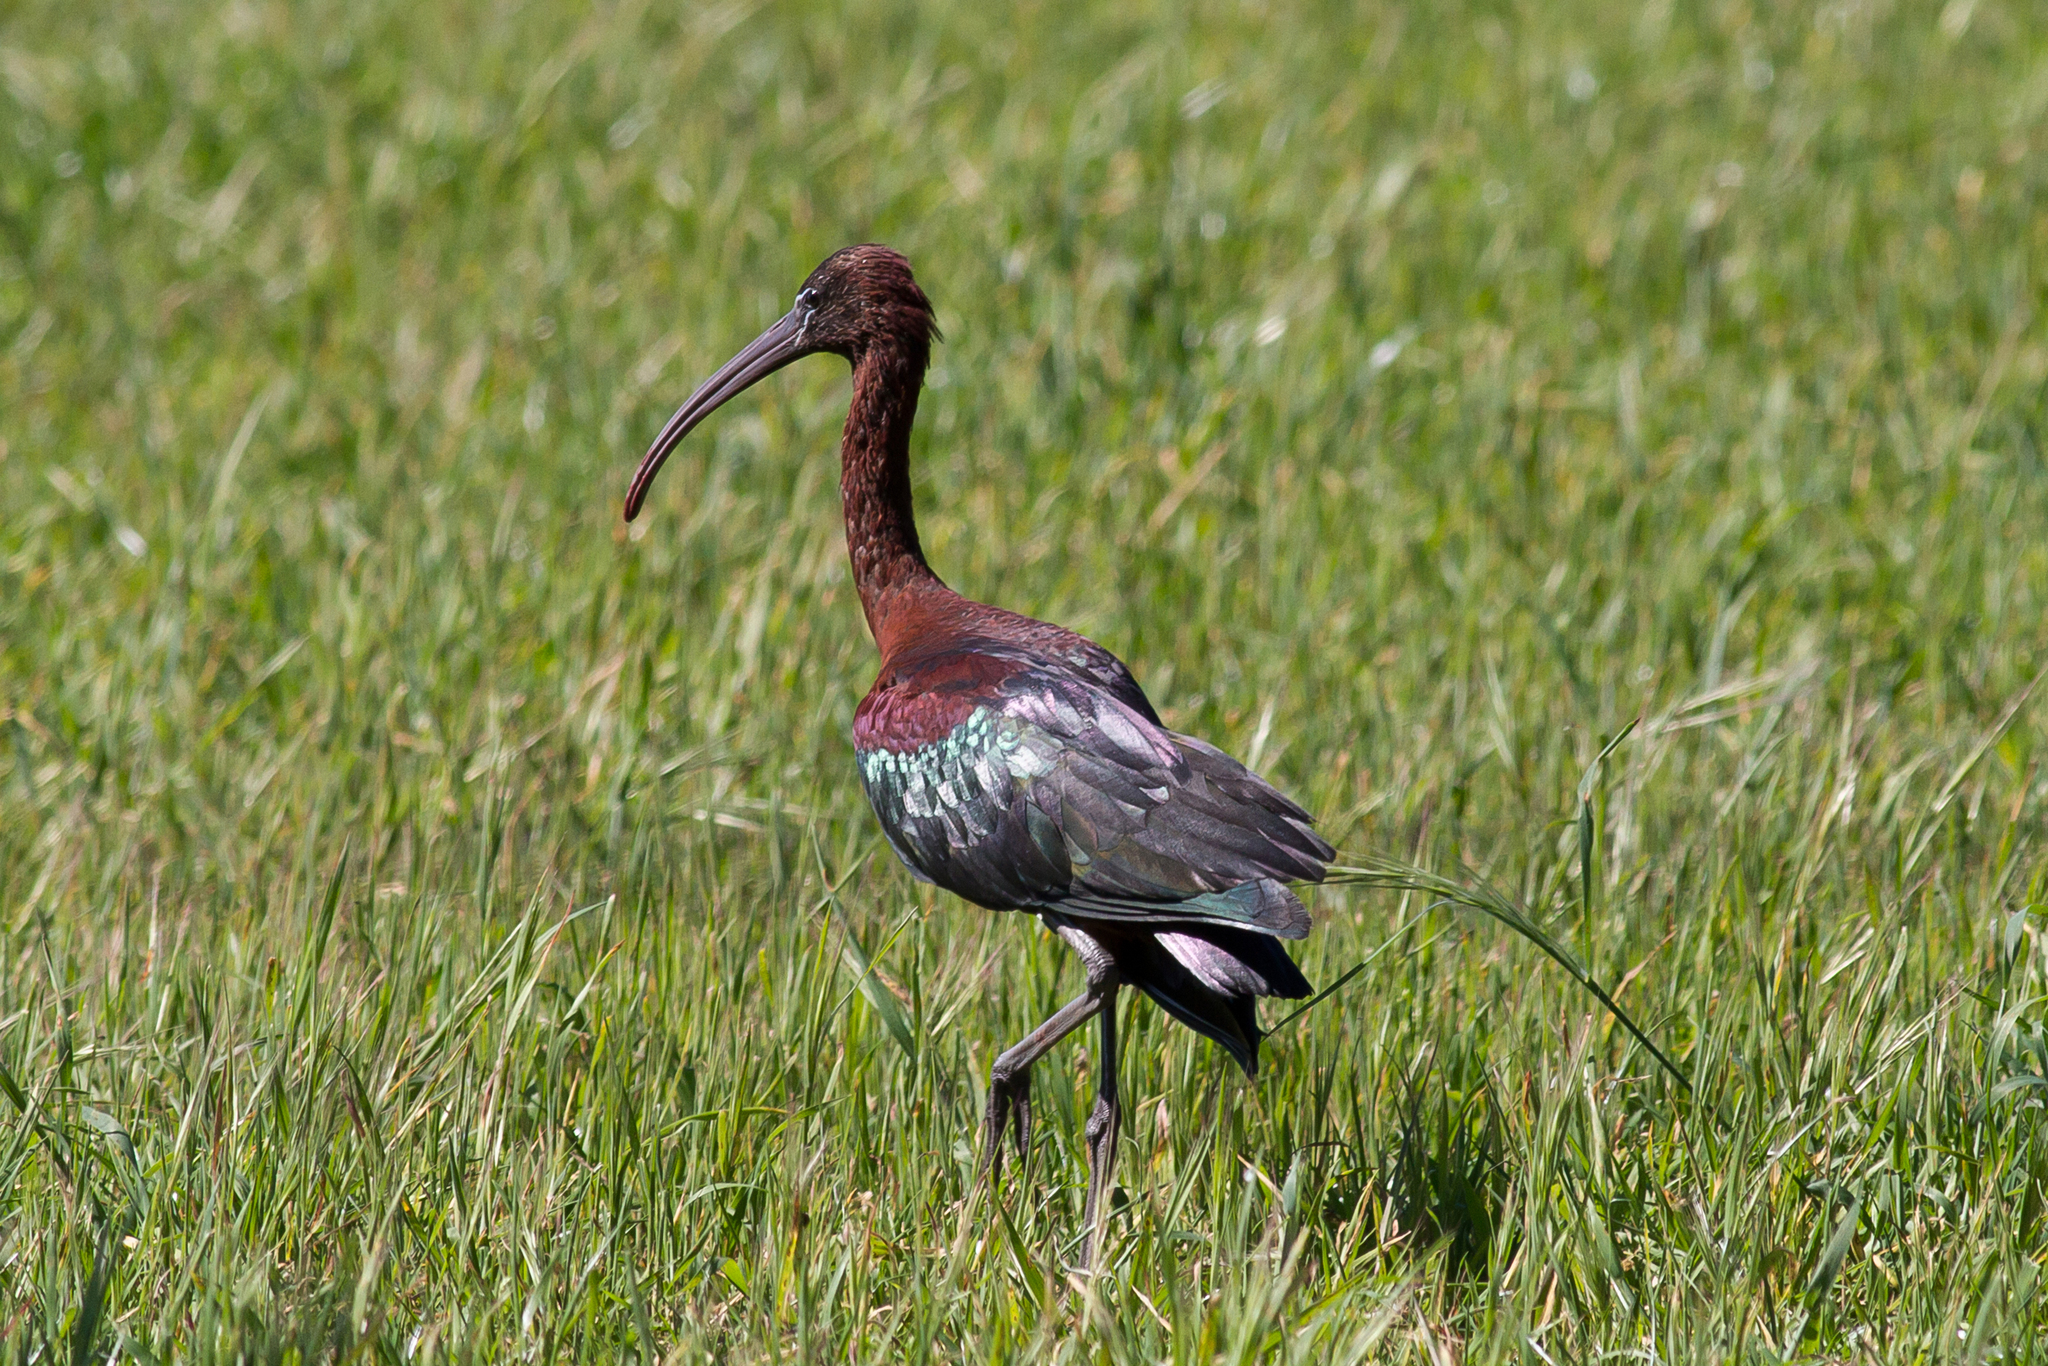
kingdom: Animalia
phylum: Chordata
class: Aves
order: Pelecaniformes
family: Threskiornithidae
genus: Plegadis
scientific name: Plegadis falcinellus
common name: Glossy ibis
